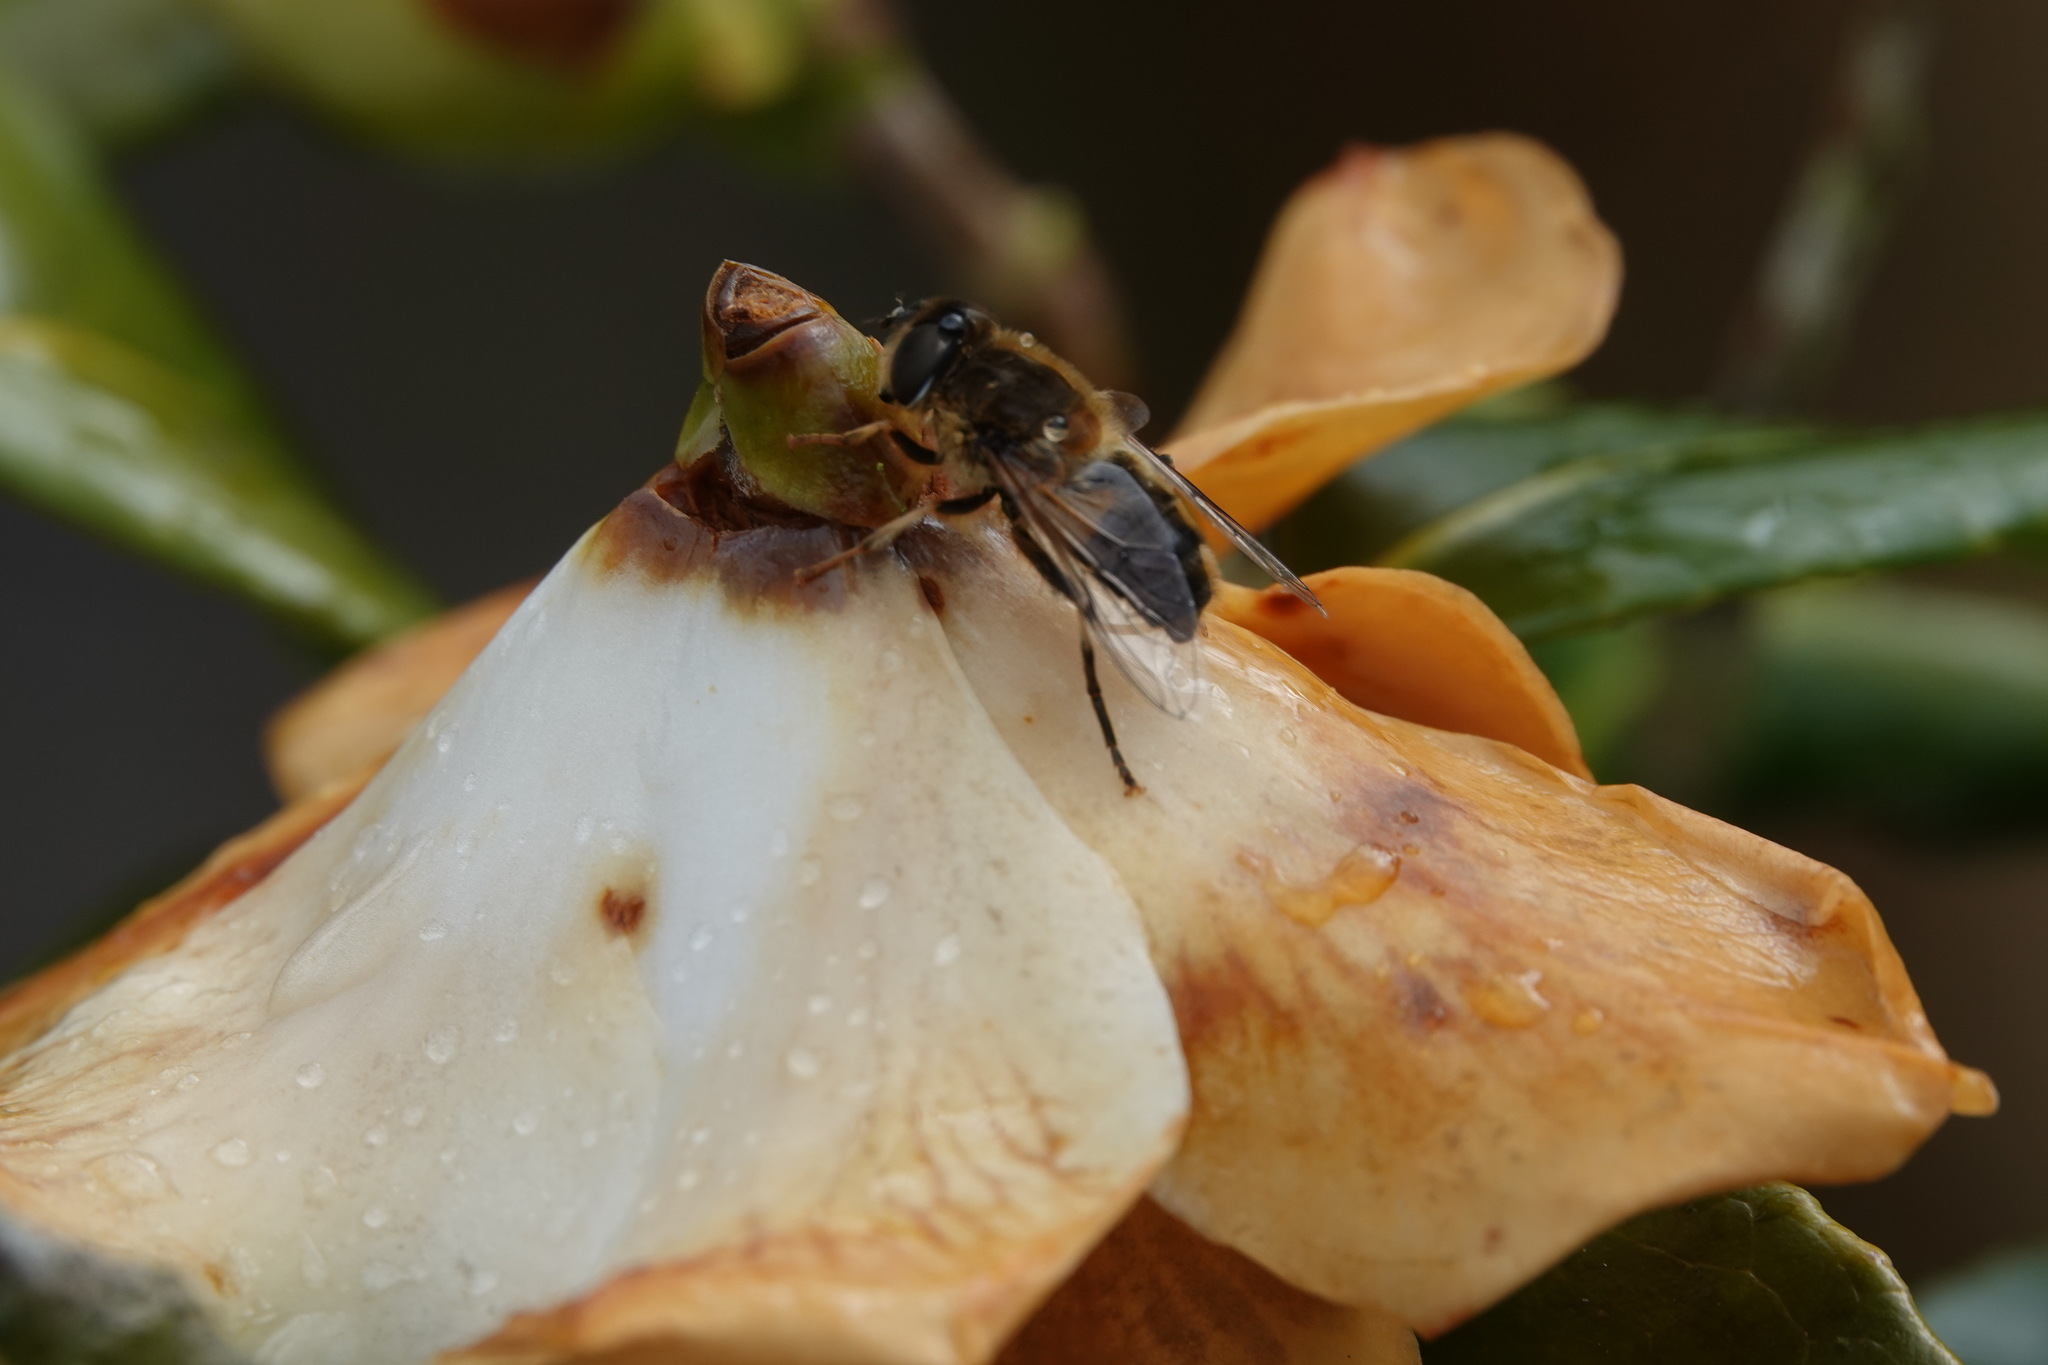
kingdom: Animalia
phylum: Arthropoda
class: Insecta
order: Diptera
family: Syrphidae
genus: Eristalis
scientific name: Eristalis pertinax
